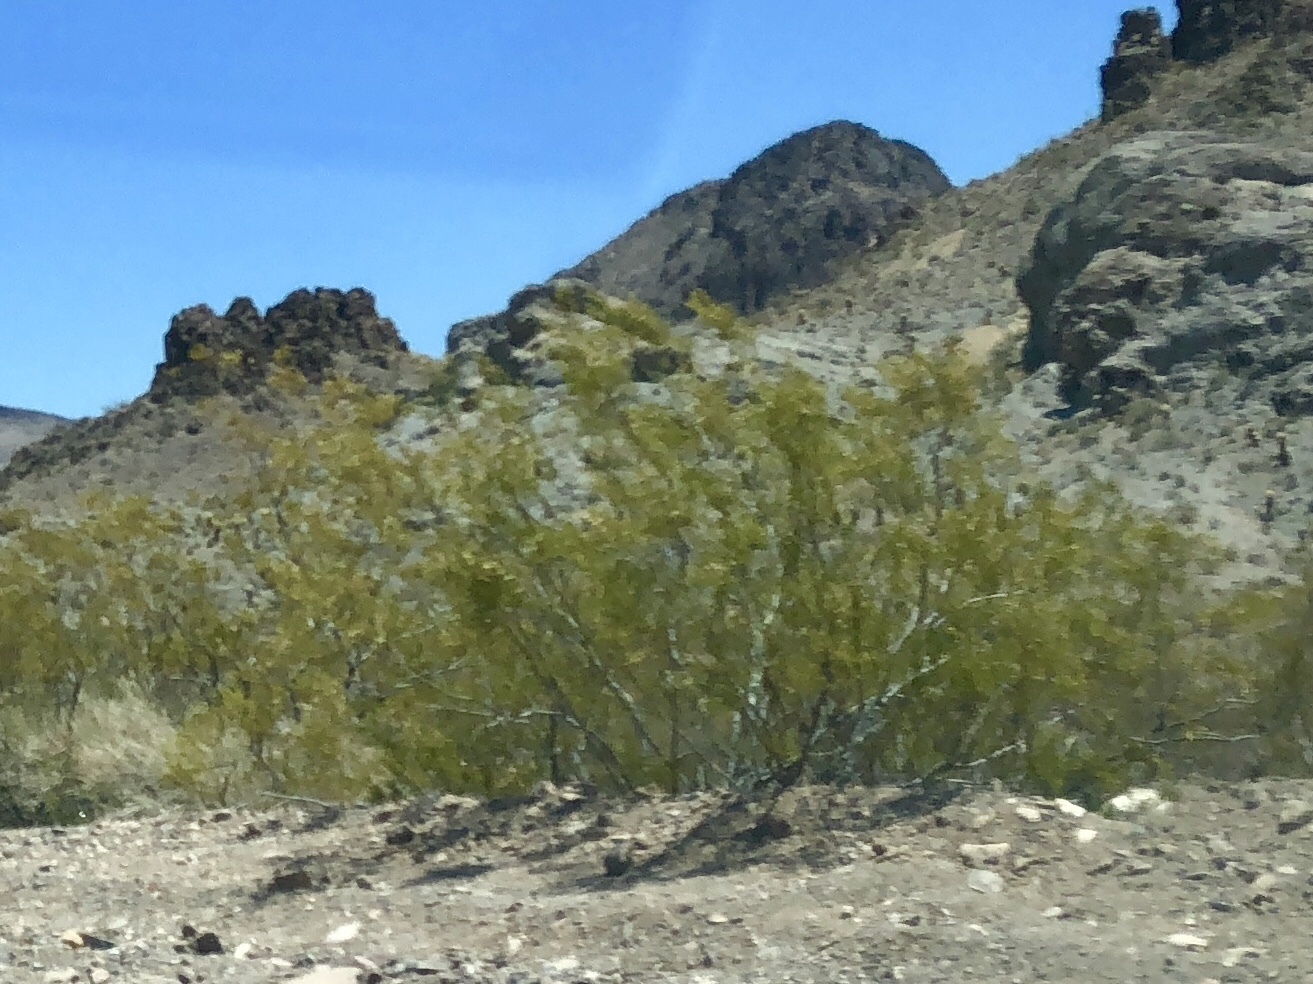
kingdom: Plantae
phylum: Tracheophyta
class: Magnoliopsida
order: Zygophyllales
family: Zygophyllaceae
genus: Larrea
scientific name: Larrea tridentata
